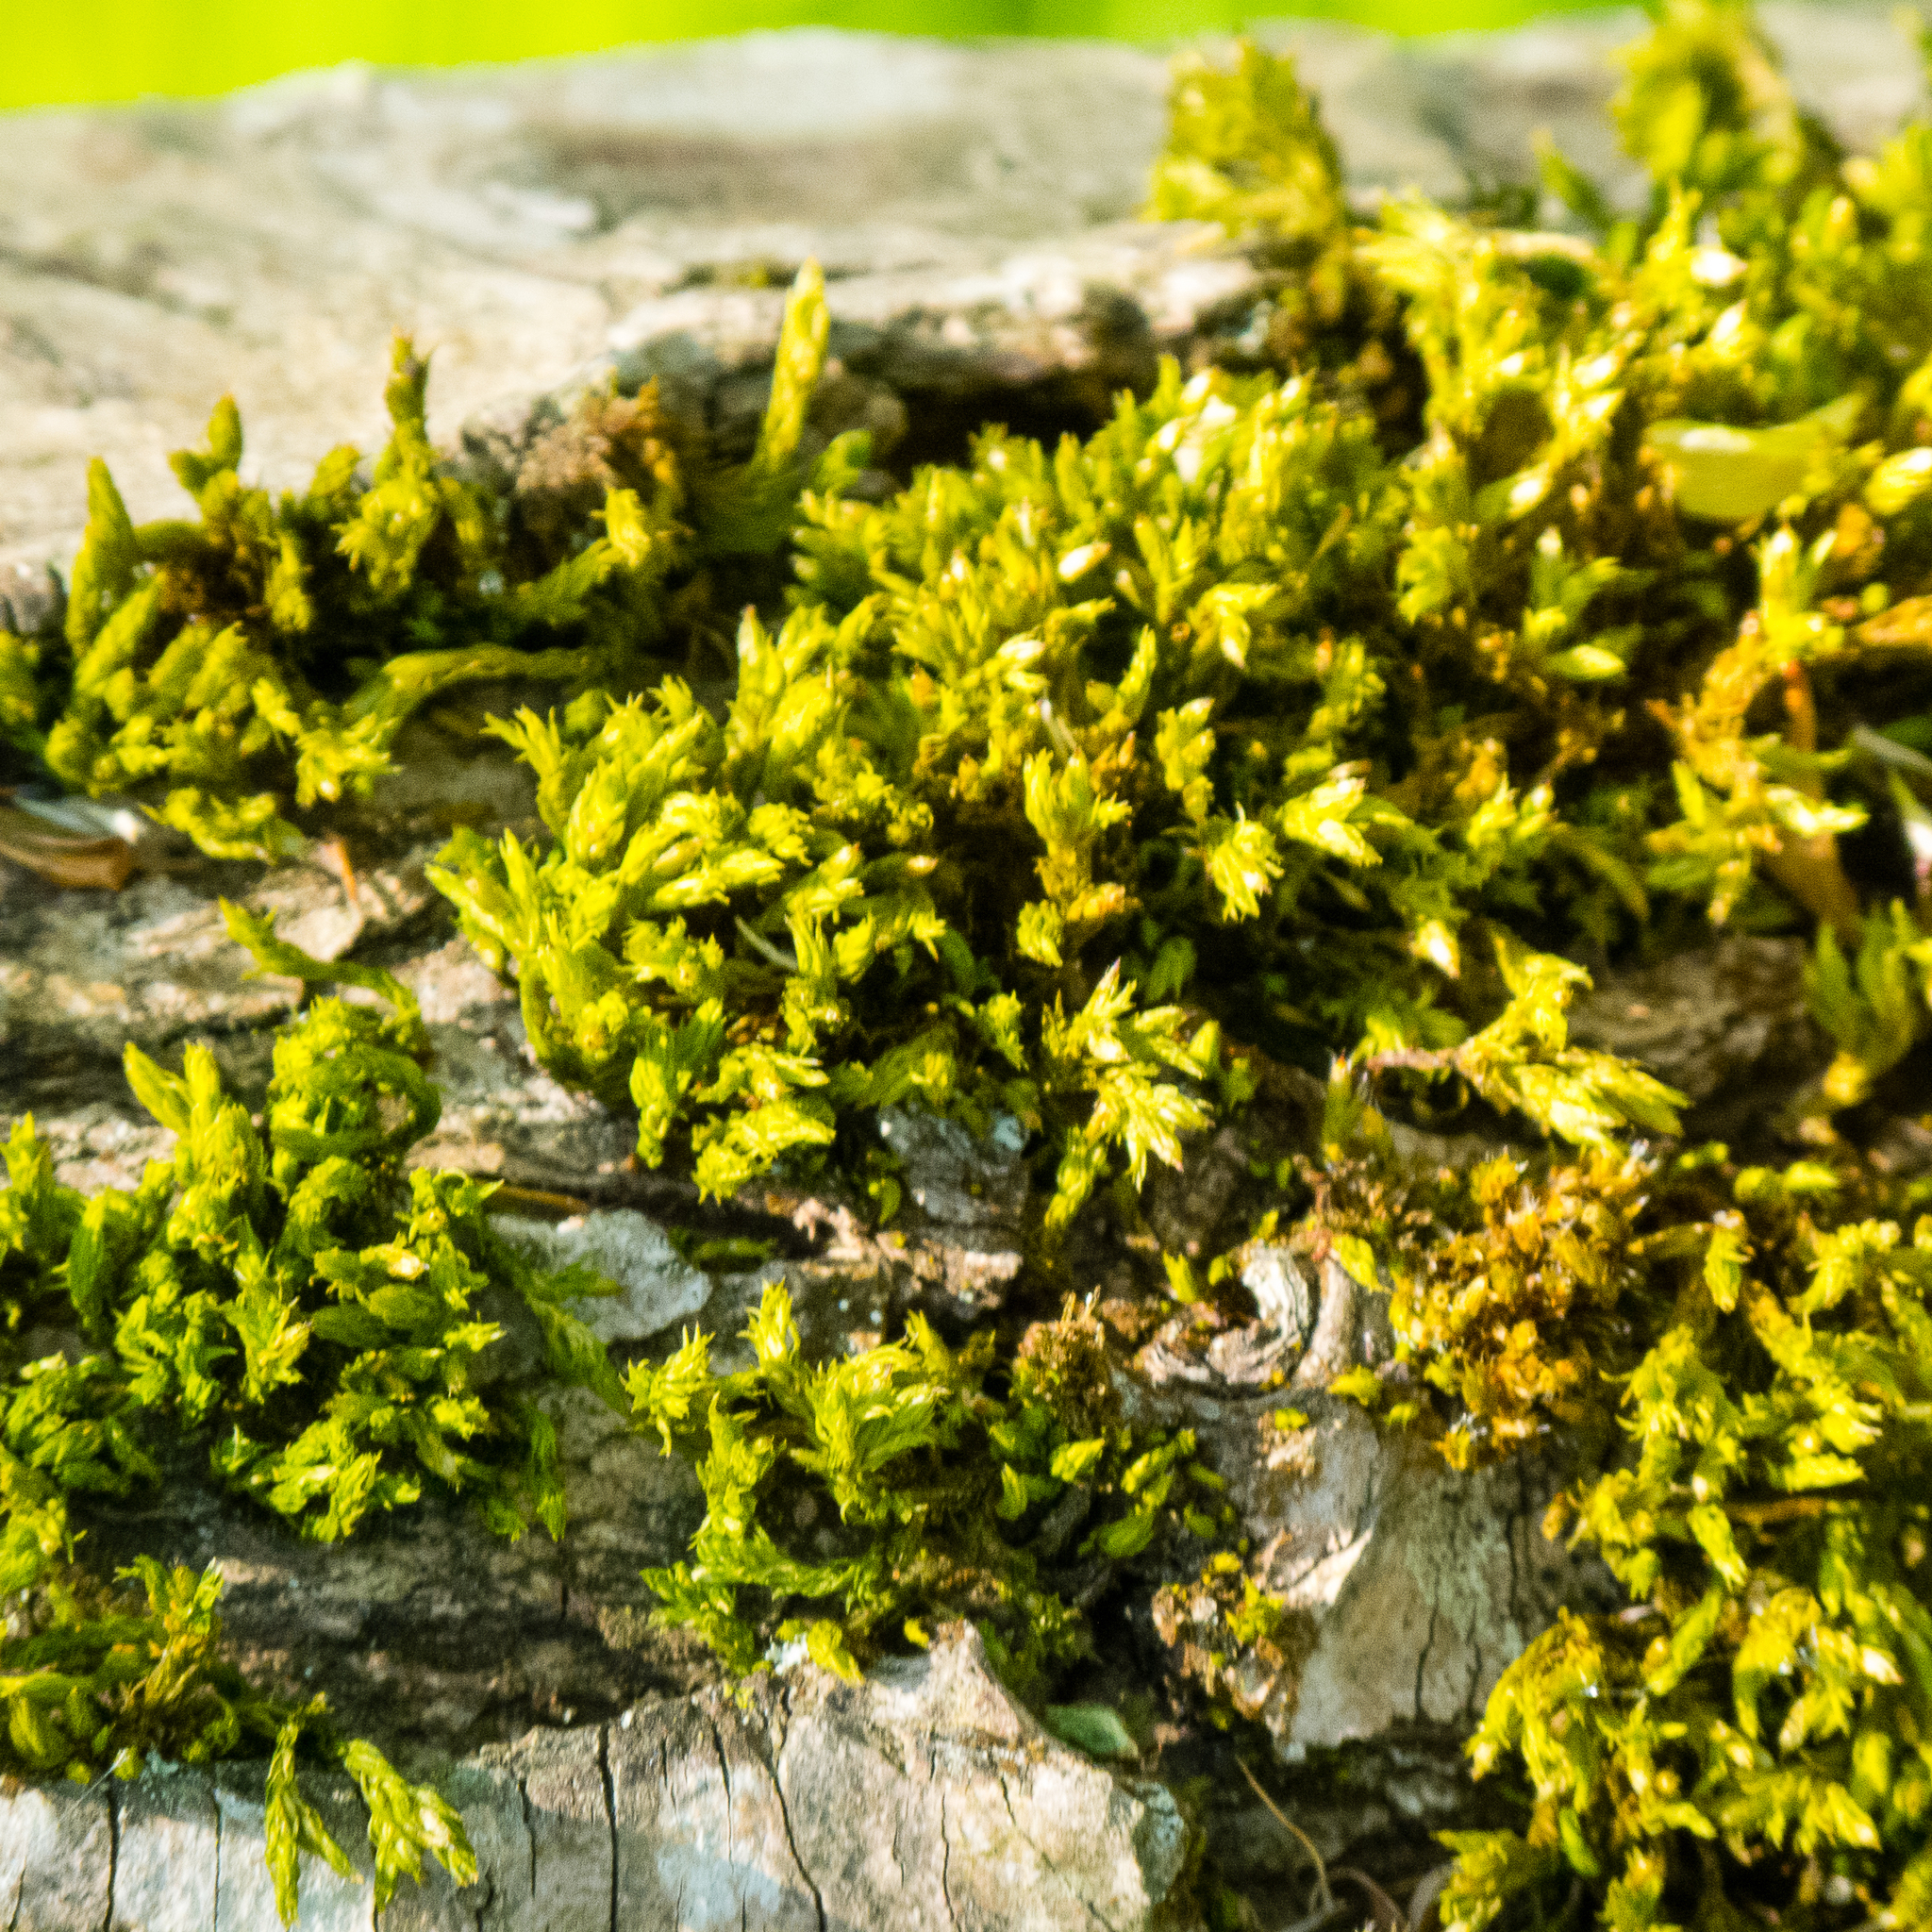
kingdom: Plantae
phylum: Bryophyta
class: Bryopsida
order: Orthotrichales
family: Orthotrichaceae
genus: Orthotrichum
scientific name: Orthotrichum stramineum
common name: Straw bristle-moss
